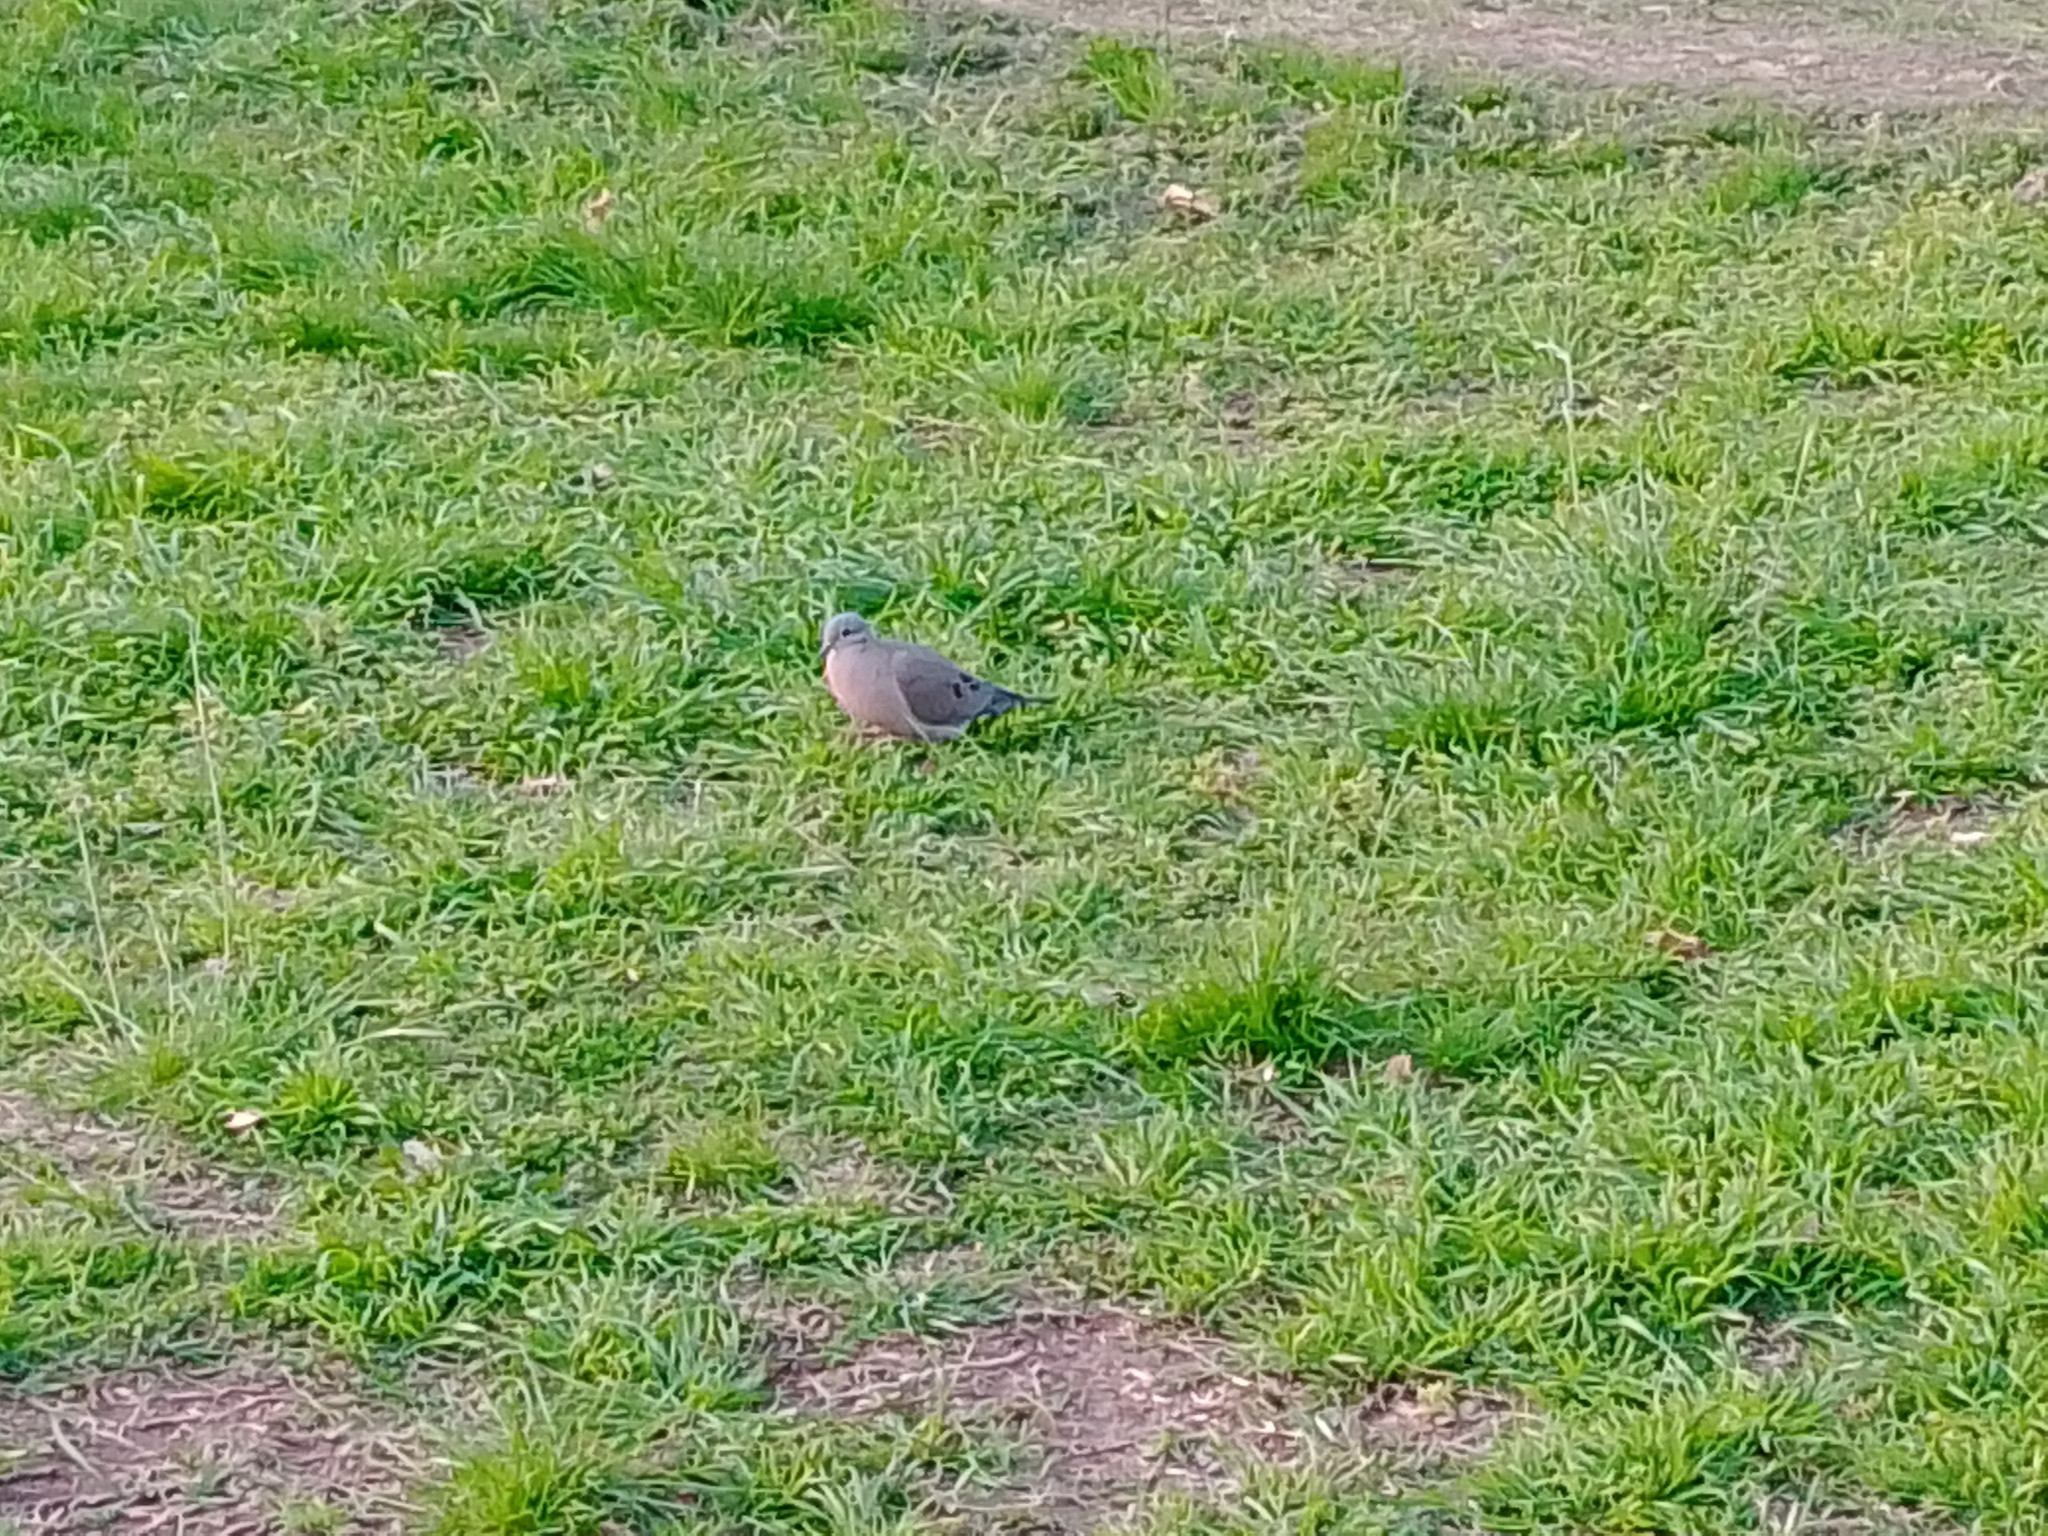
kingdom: Animalia
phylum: Chordata
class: Aves
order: Columbiformes
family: Columbidae
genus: Zenaida
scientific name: Zenaida auriculata
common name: Eared dove
